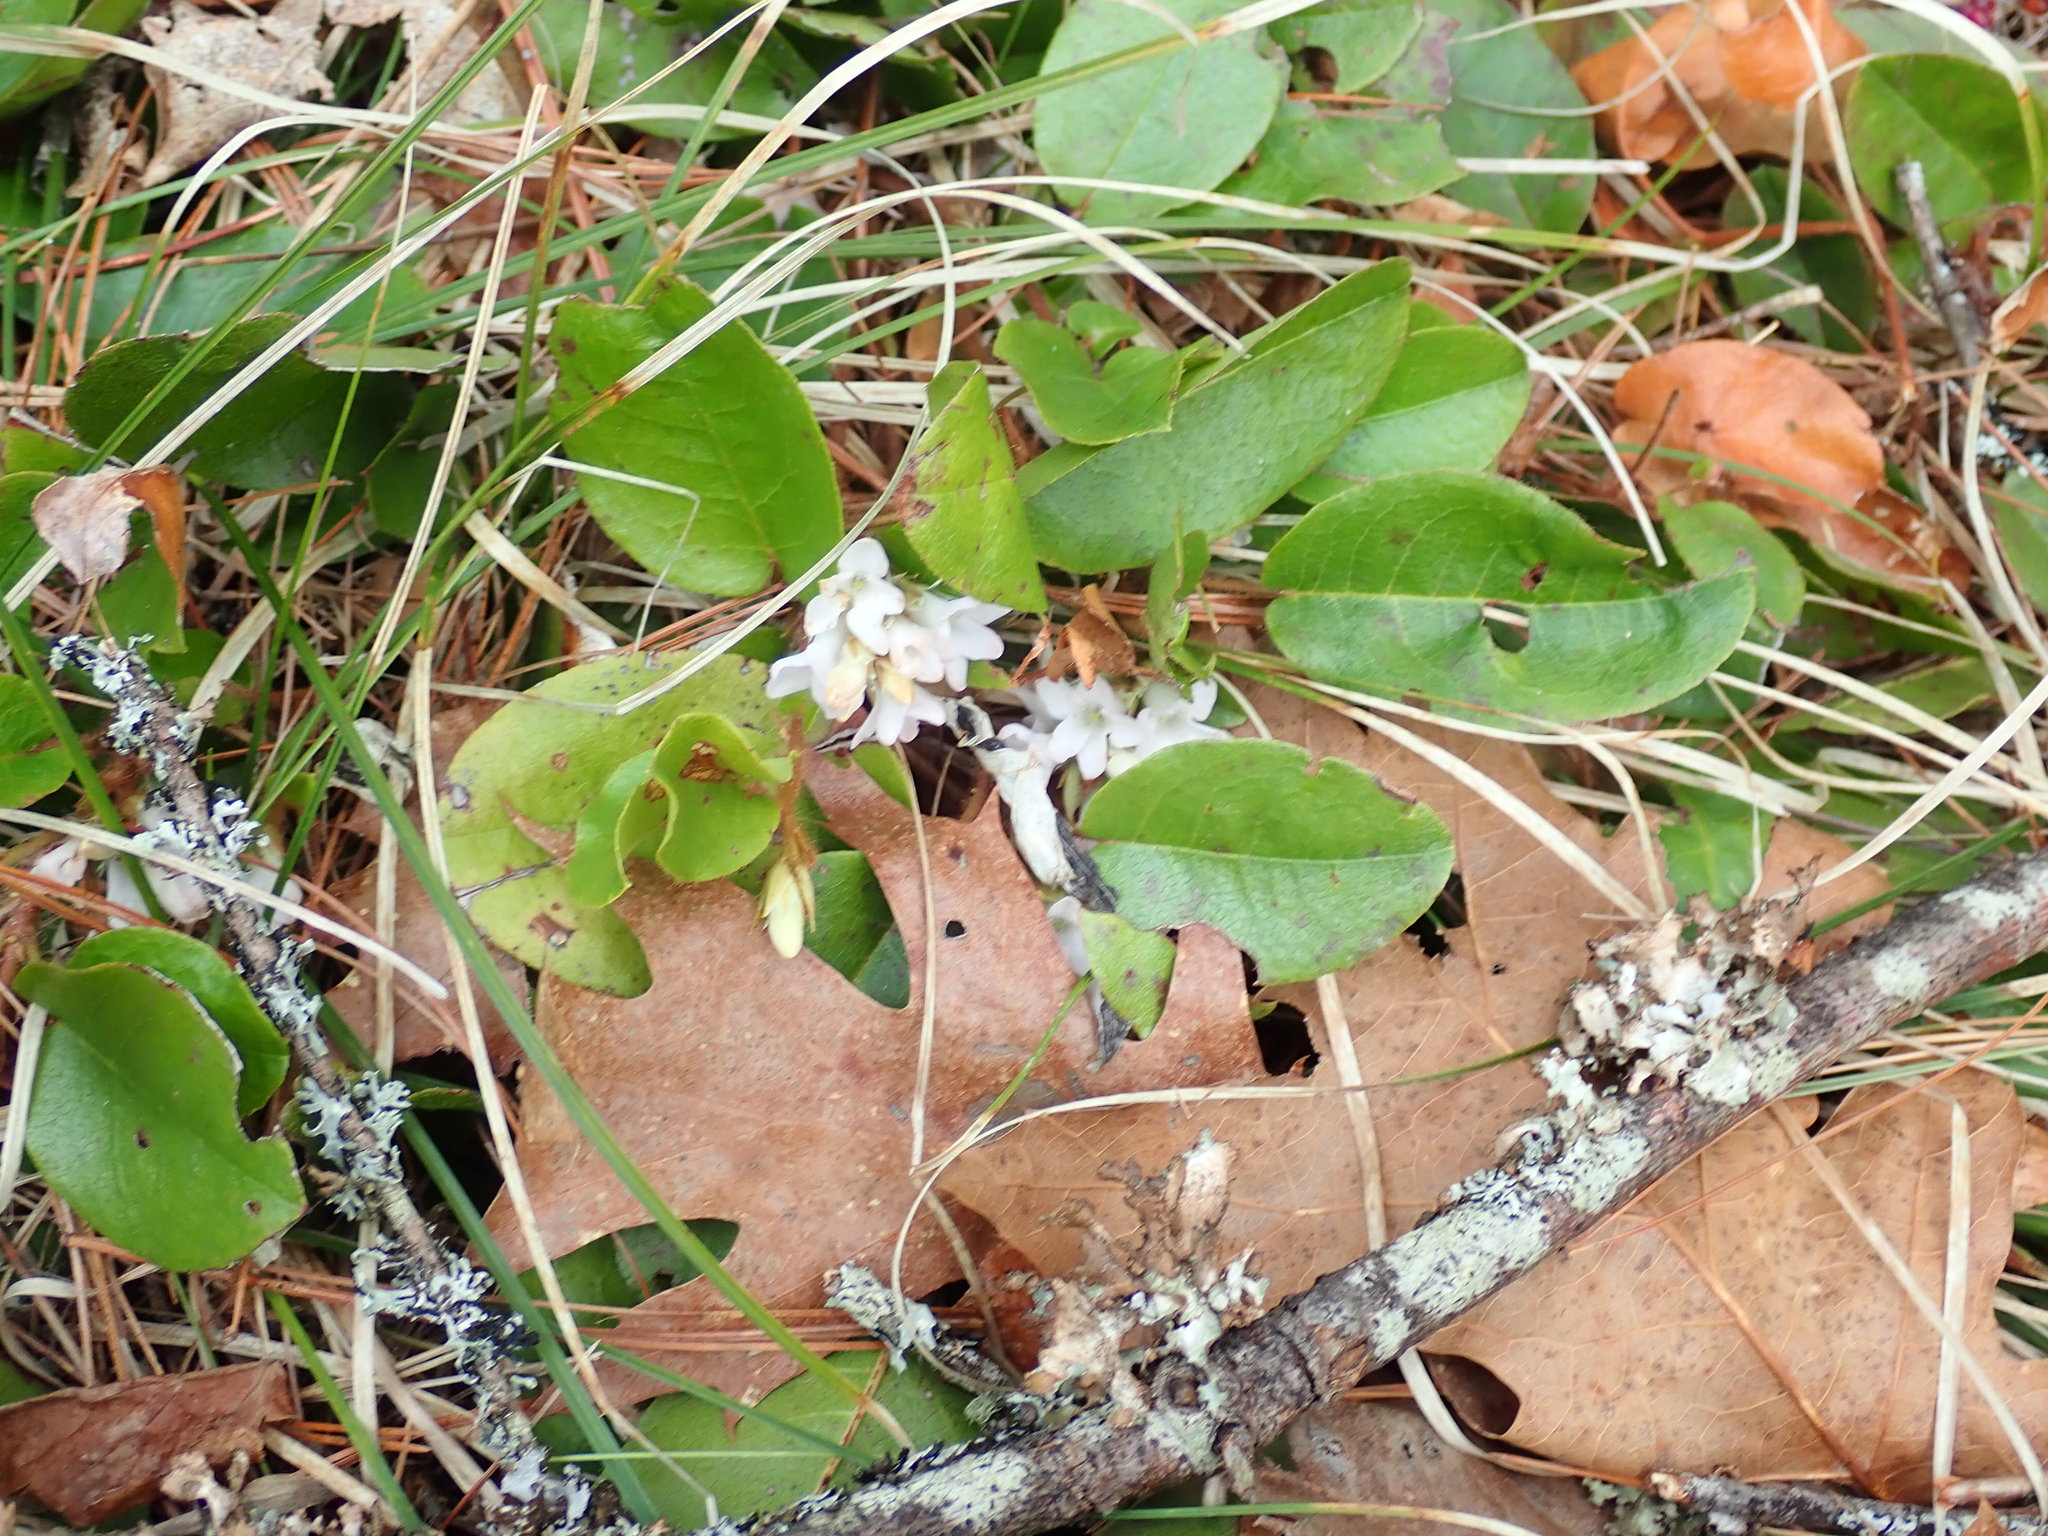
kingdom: Plantae
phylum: Tracheophyta
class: Magnoliopsida
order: Ericales
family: Ericaceae
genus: Epigaea
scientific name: Epigaea repens
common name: Gravelroot
